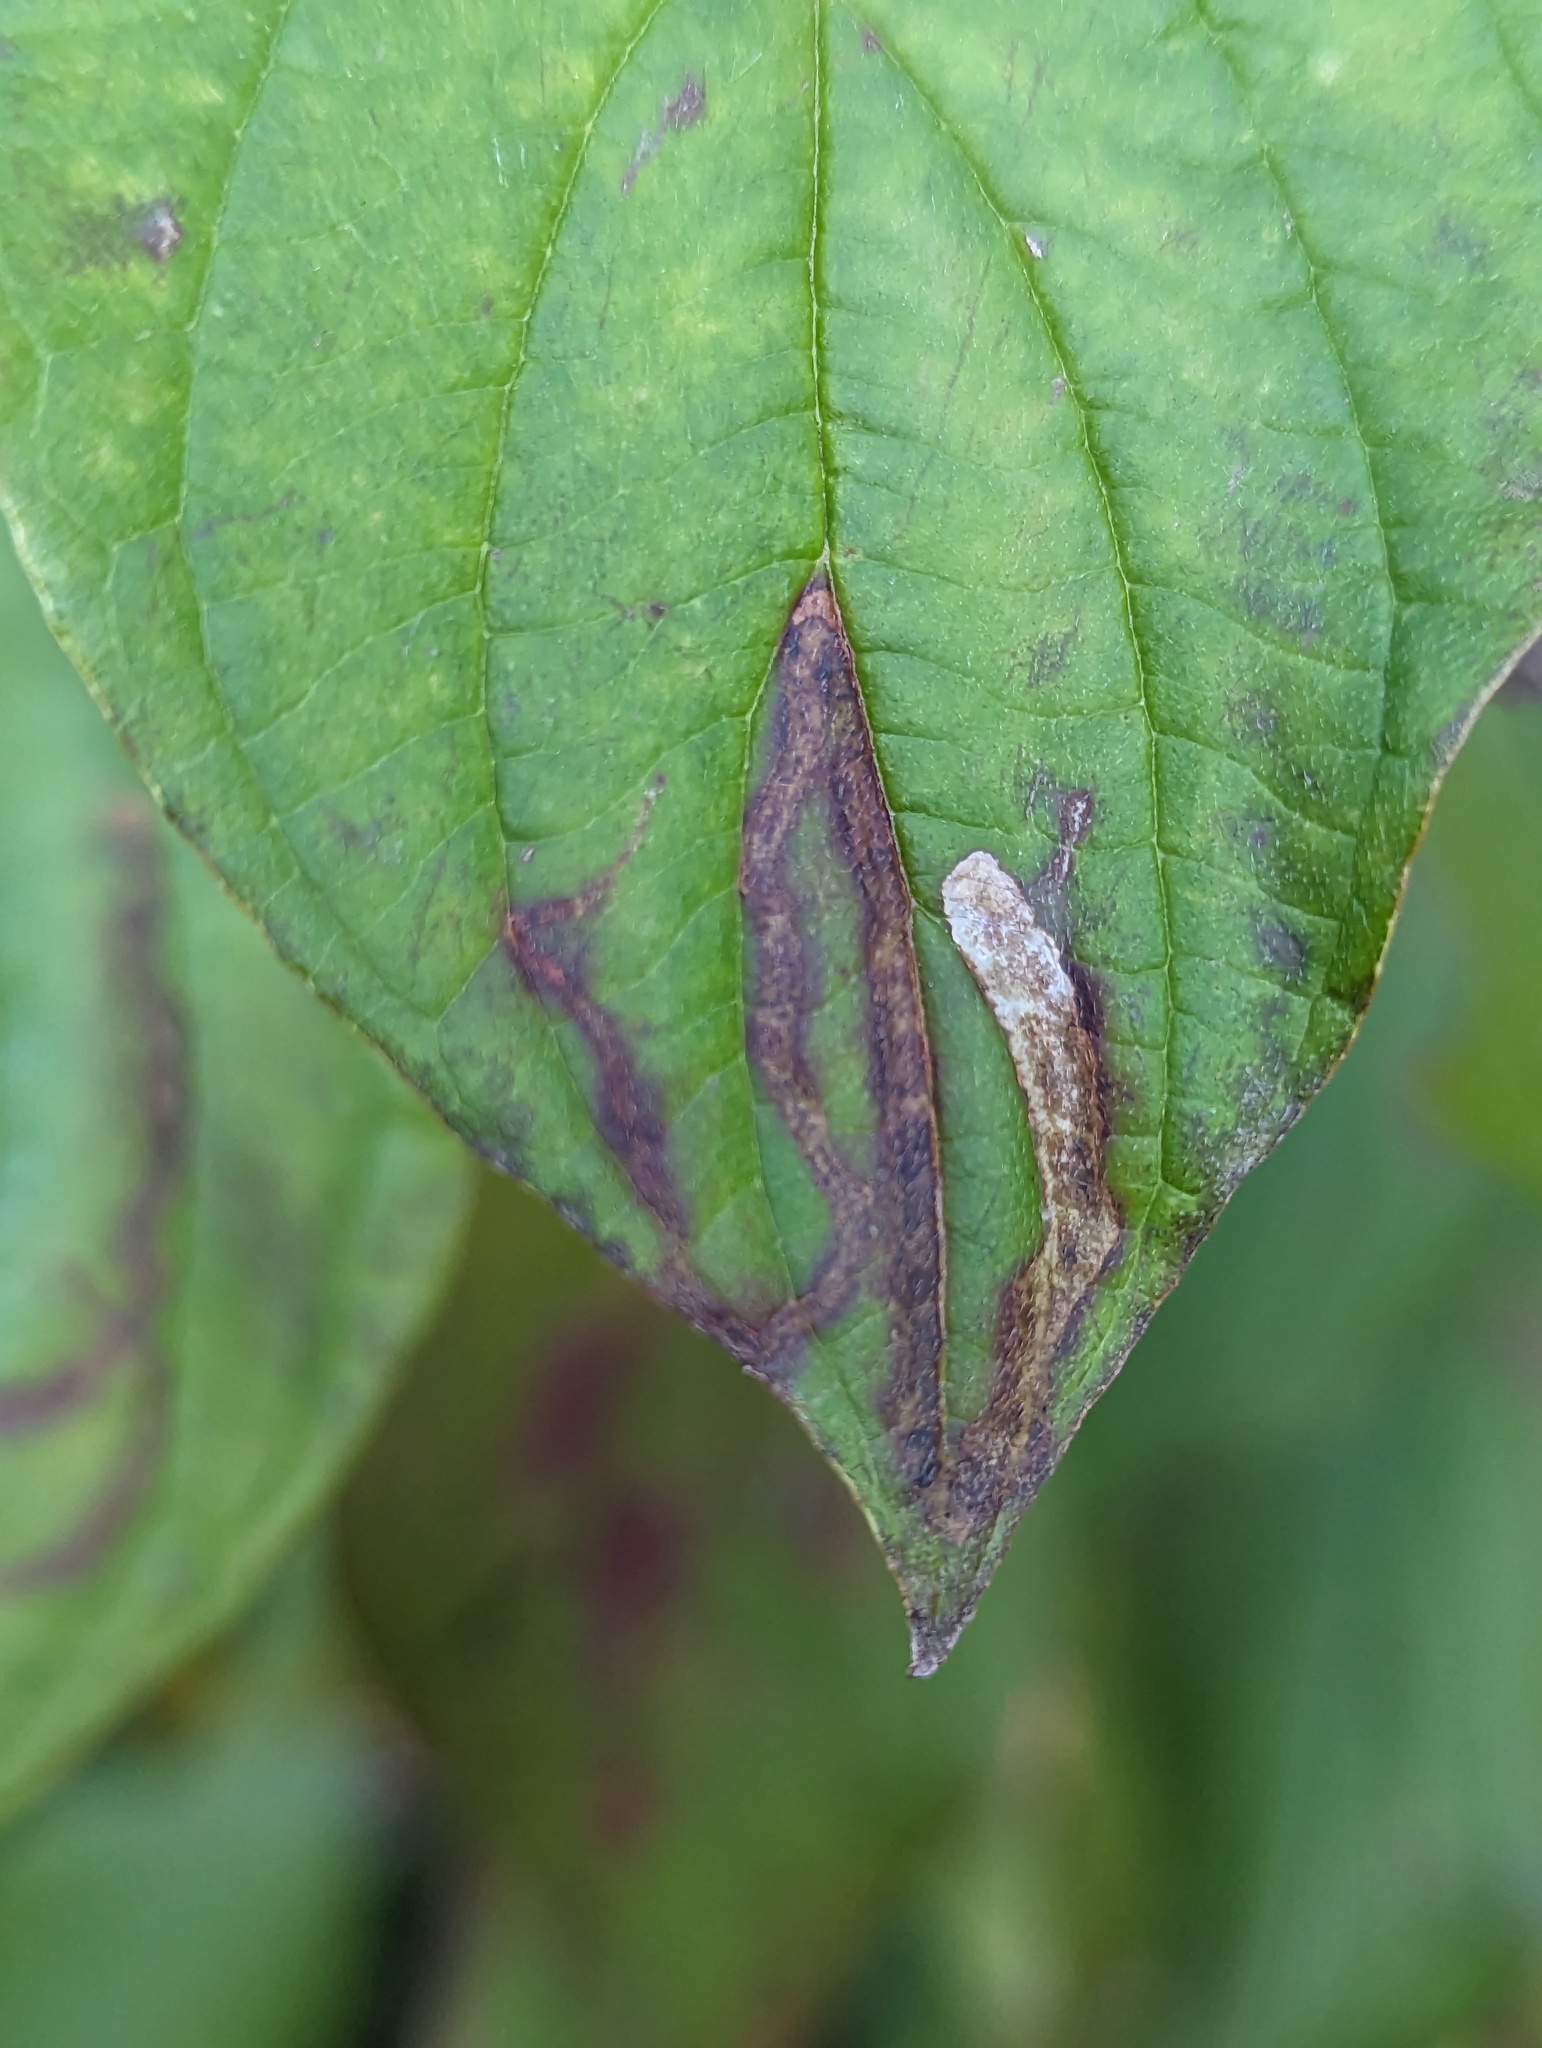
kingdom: Animalia
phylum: Arthropoda
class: Insecta
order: Diptera
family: Agromyzidae
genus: Phytomyza
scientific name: Phytomyza agromyzina
